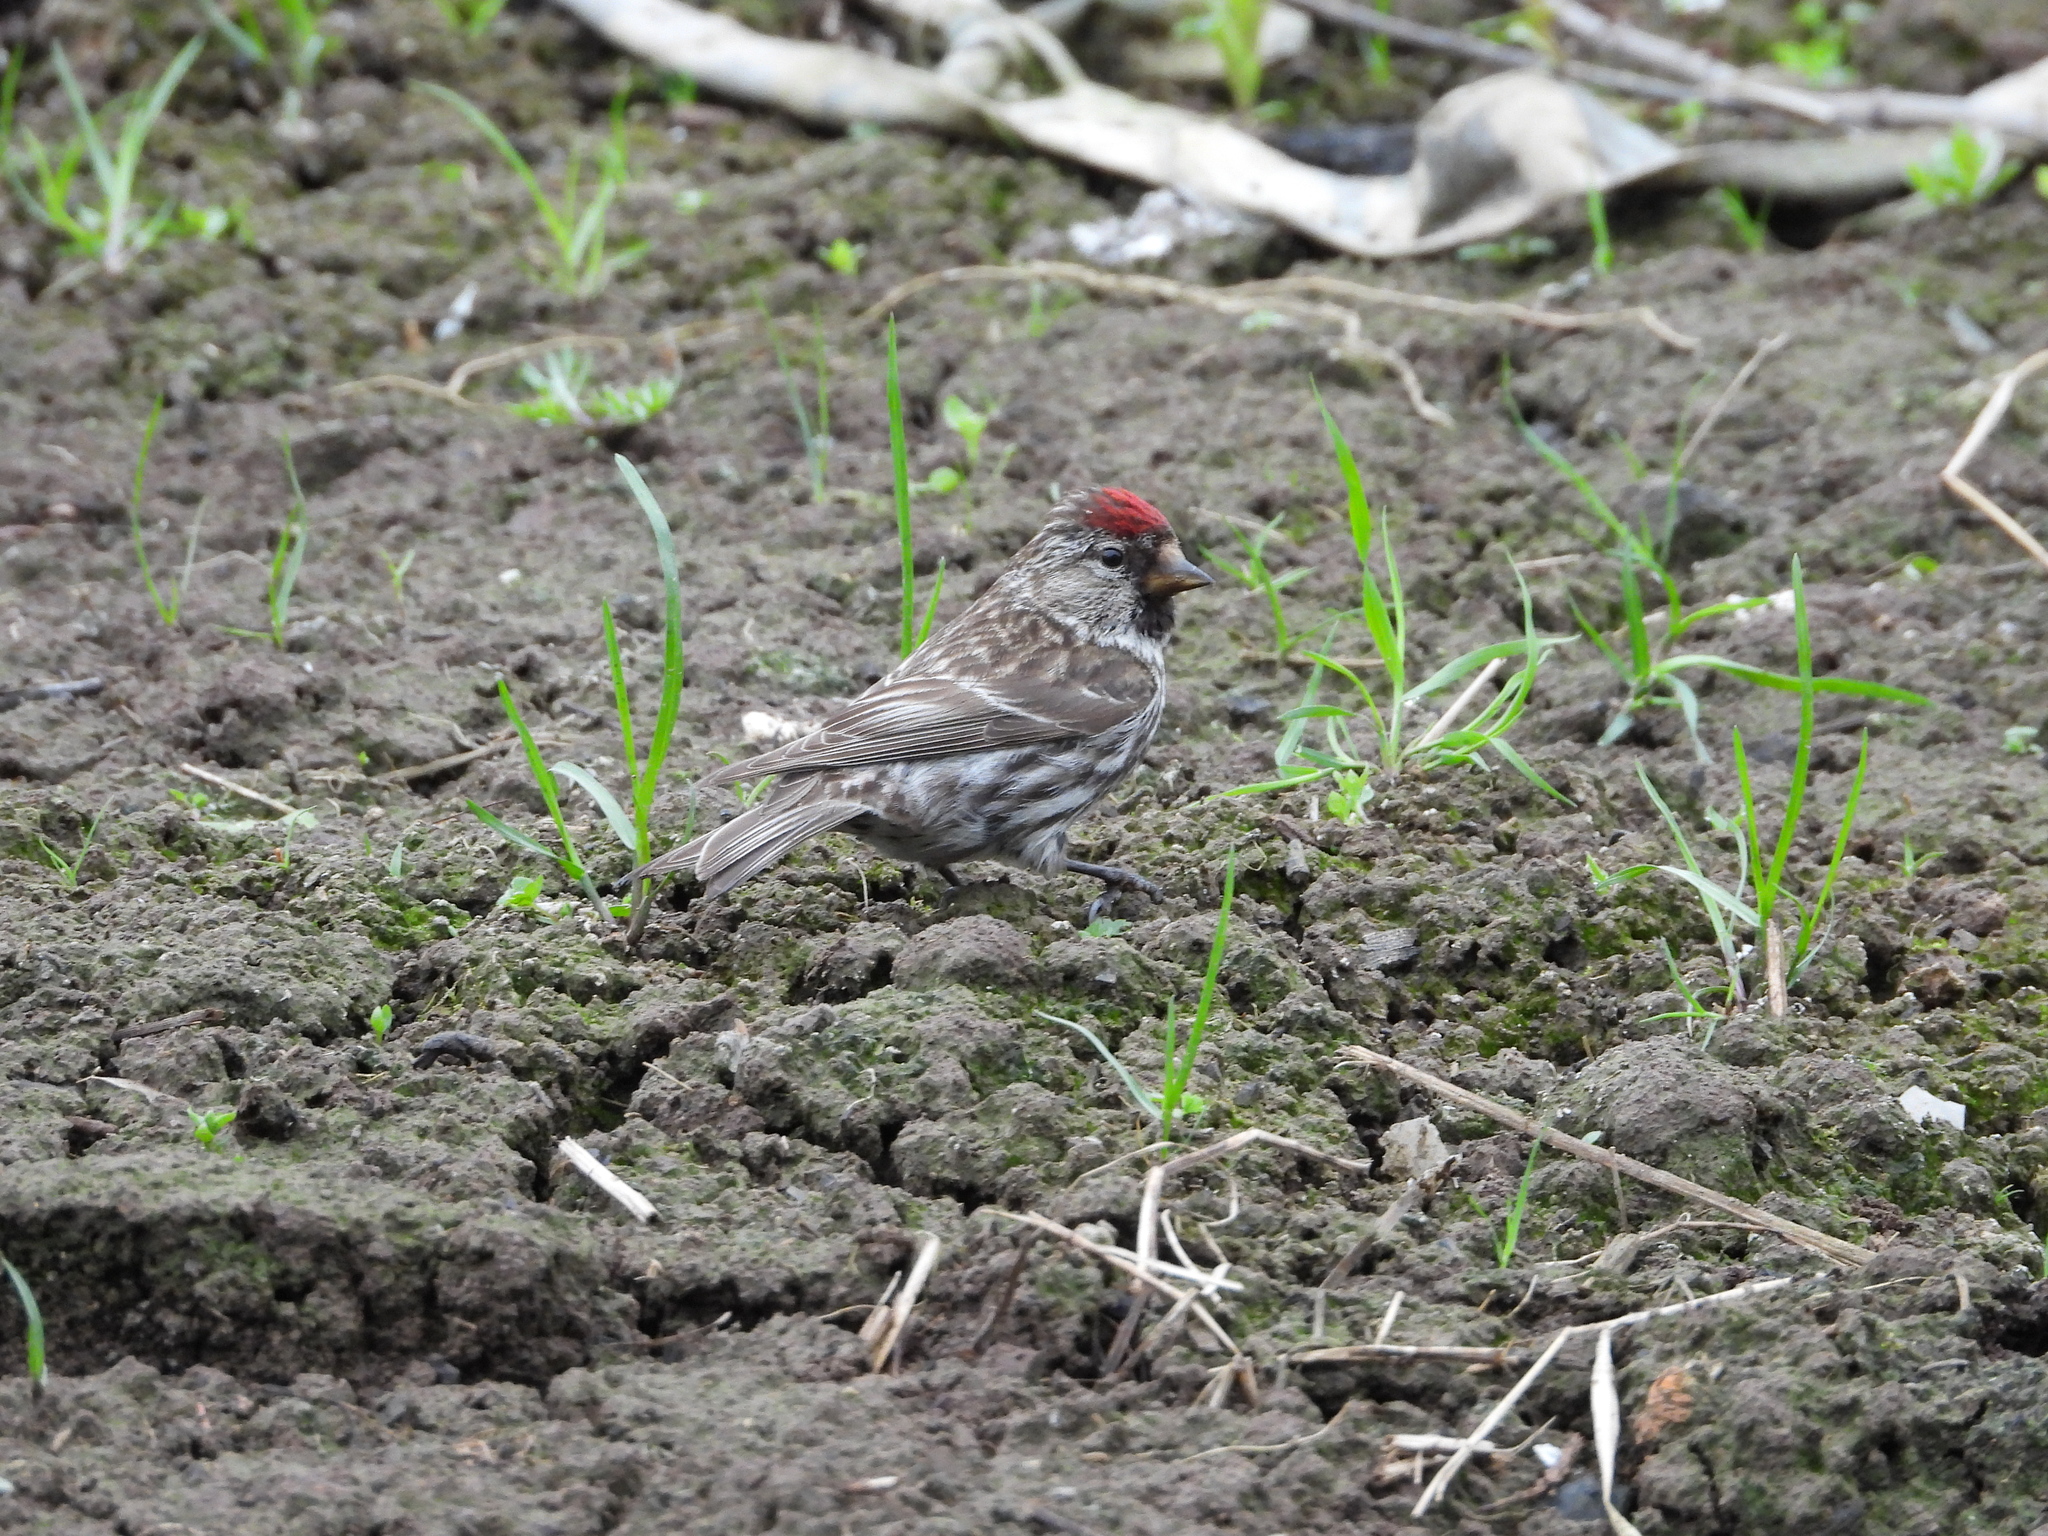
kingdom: Animalia
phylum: Chordata
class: Aves
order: Passeriformes
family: Fringillidae
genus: Acanthis
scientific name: Acanthis flammea
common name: Common redpoll
